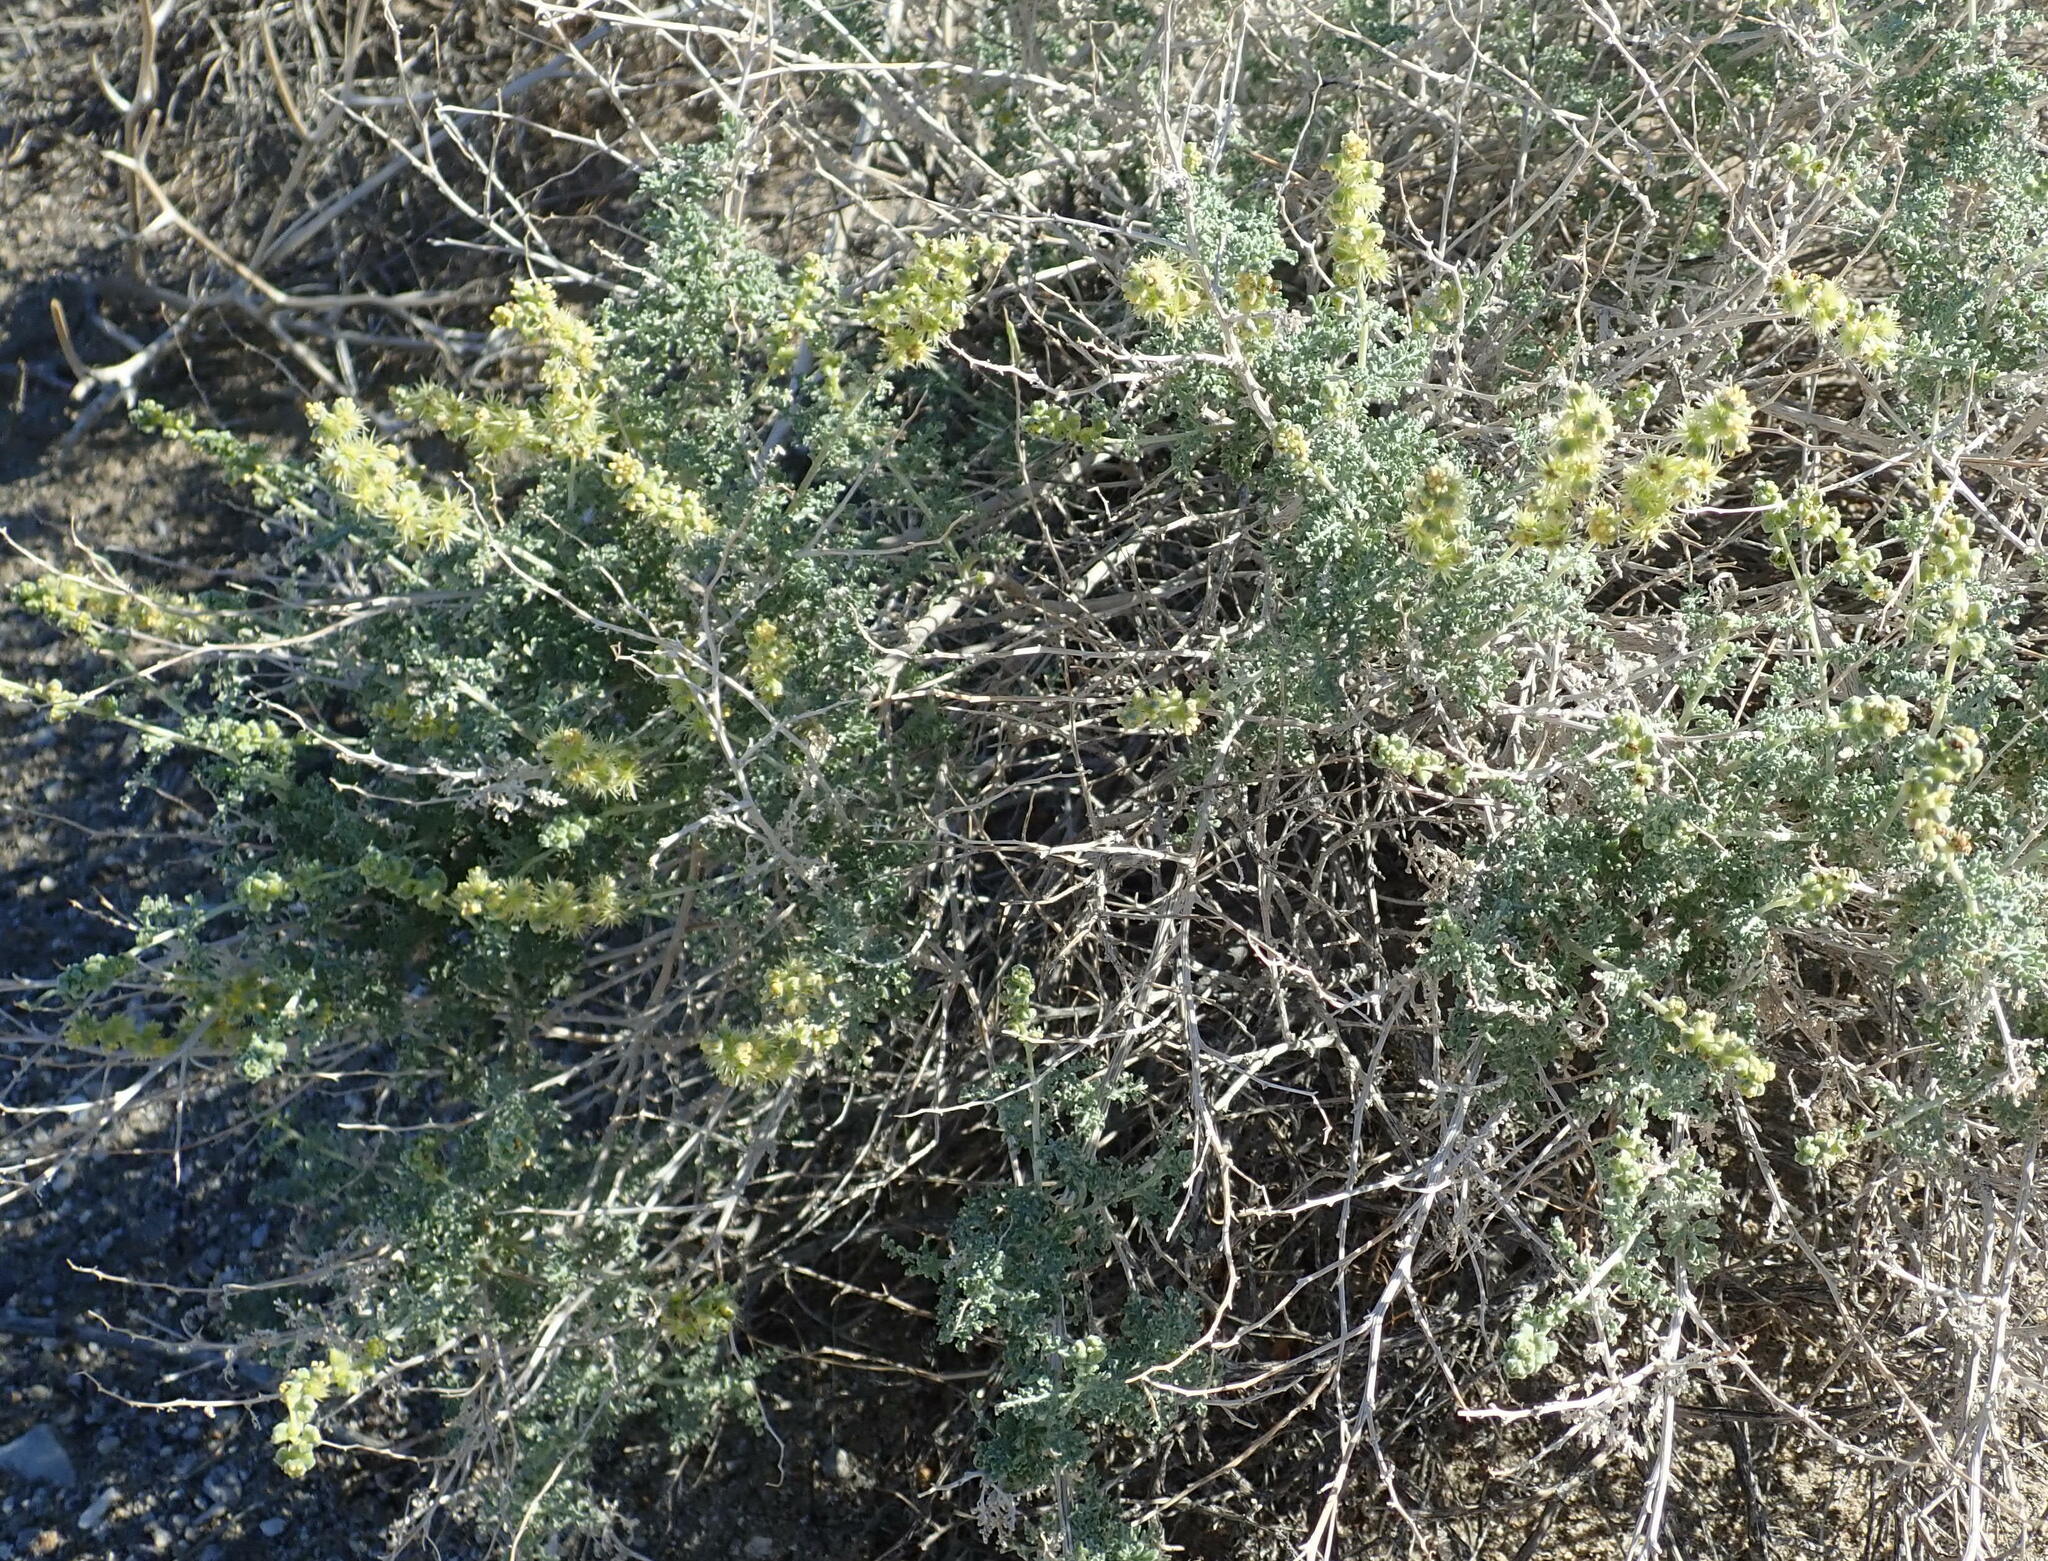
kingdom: Plantae
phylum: Tracheophyta
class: Magnoliopsida
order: Asterales
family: Asteraceae
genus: Ambrosia
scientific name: Ambrosia dumosa
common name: Bur-sage
